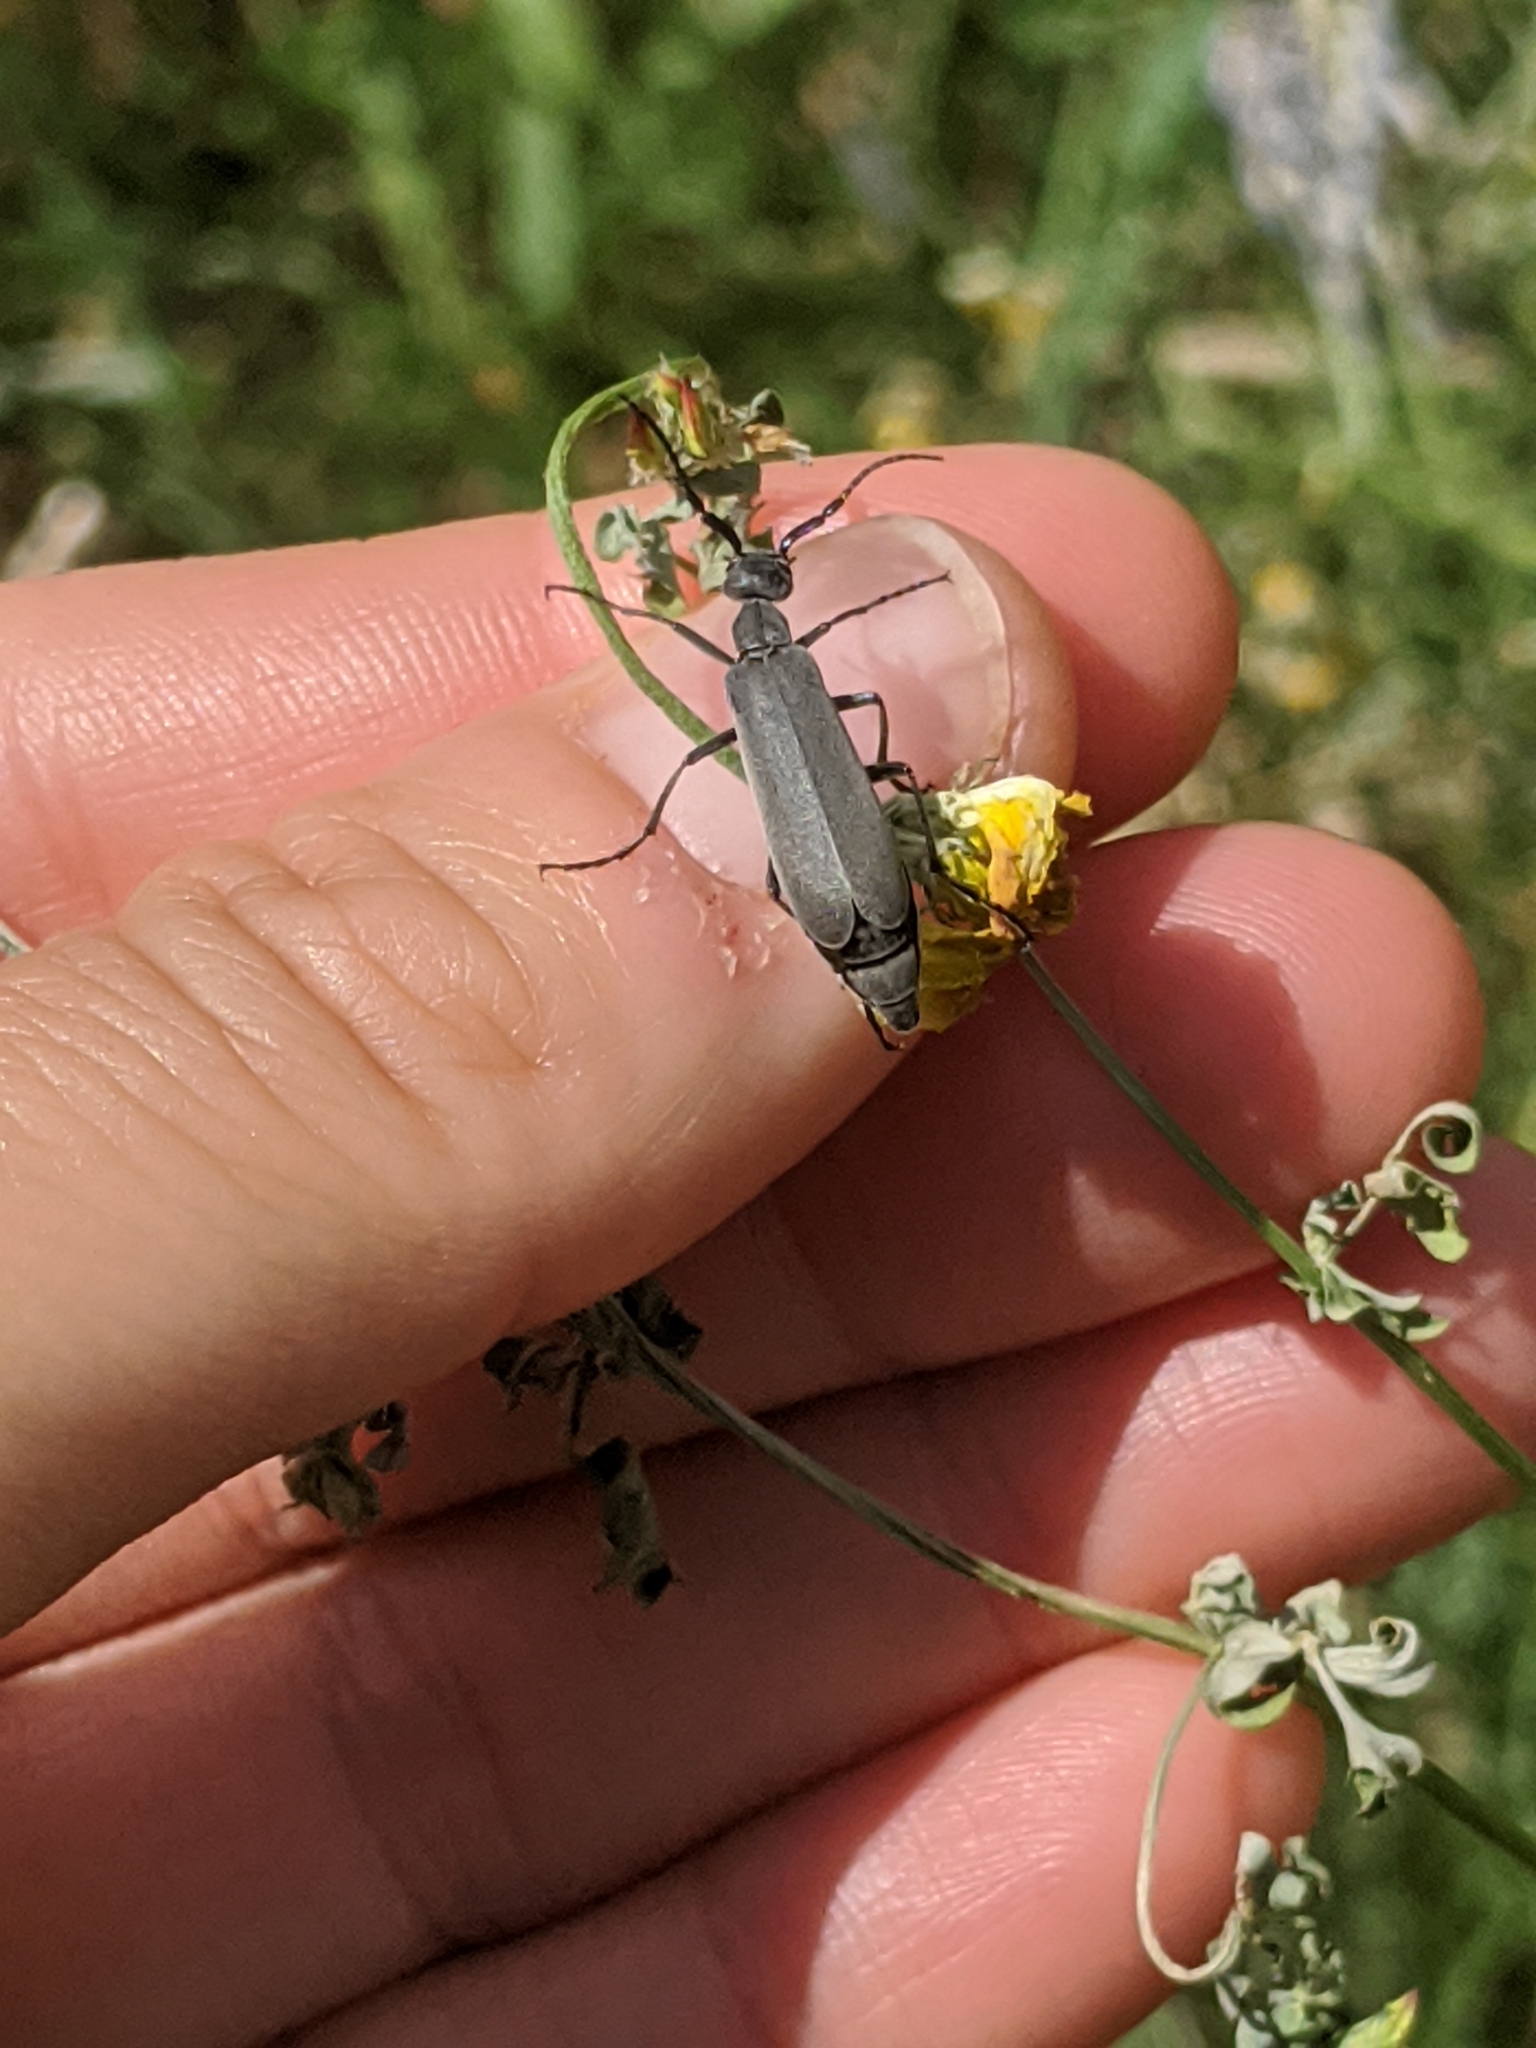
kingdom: Animalia
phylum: Arthropoda
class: Insecta
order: Coleoptera
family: Meloidae
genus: Epicauta
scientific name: Epicauta fabricii
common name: Ashgray blister beetle
